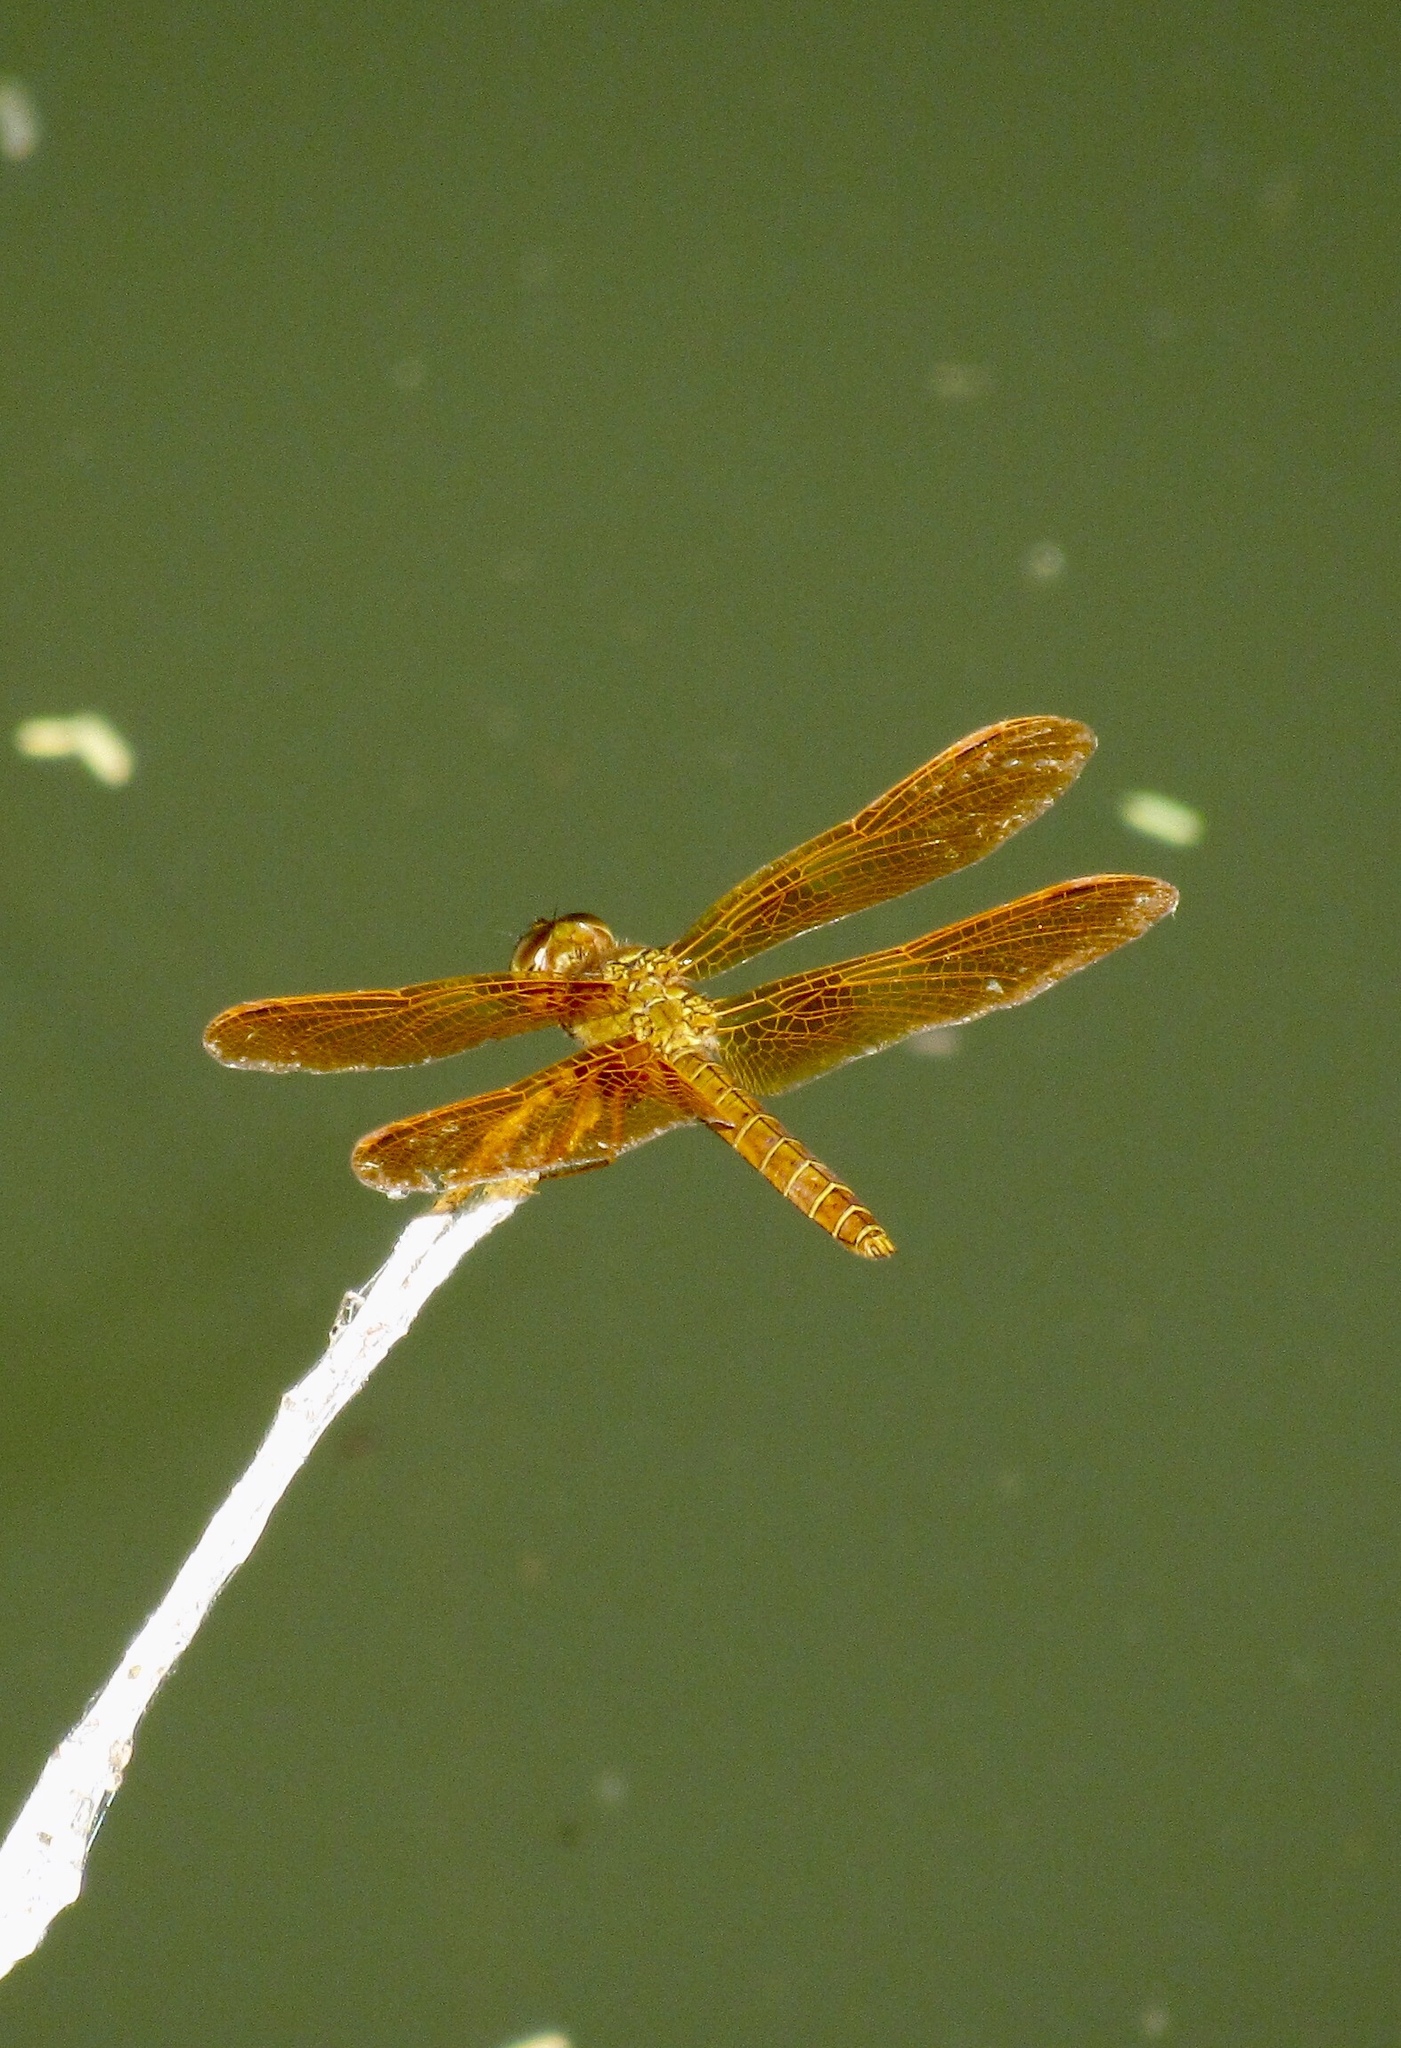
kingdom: Animalia
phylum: Arthropoda
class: Insecta
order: Odonata
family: Libellulidae
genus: Perithemis
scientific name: Perithemis intensa
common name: Mexican amberwing
